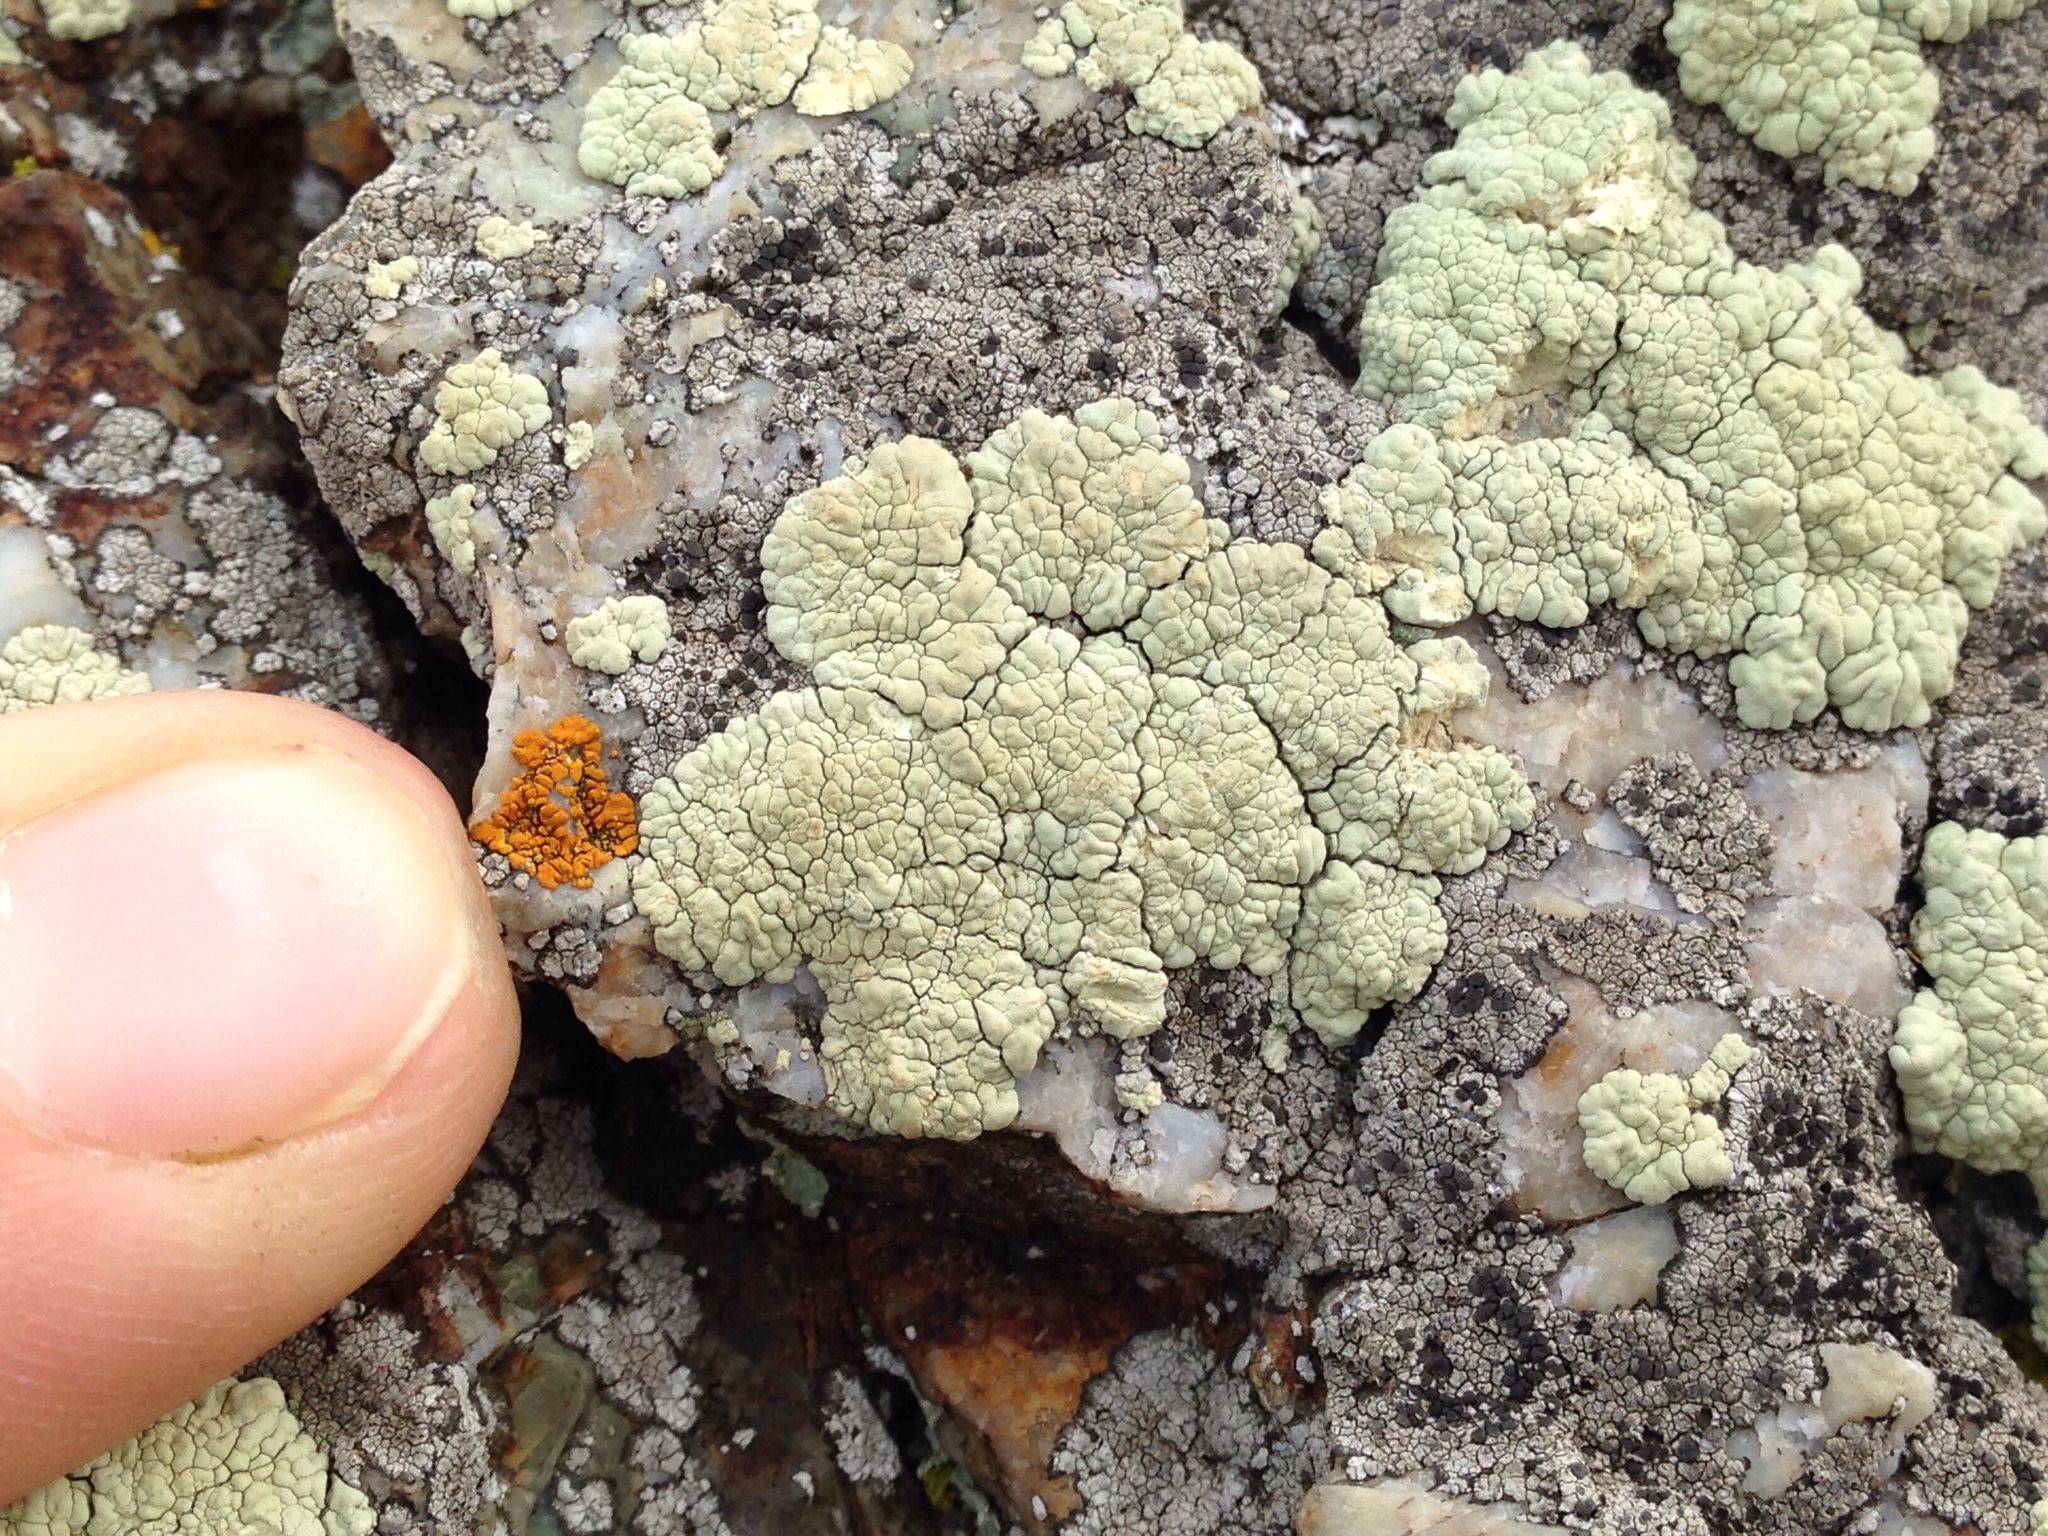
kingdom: Fungi
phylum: Ascomycota
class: Lecanoromycetes
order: Lecanorales
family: Lecanoraceae
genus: Protoparmeliopsis
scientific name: Protoparmeliopsis pinguis
